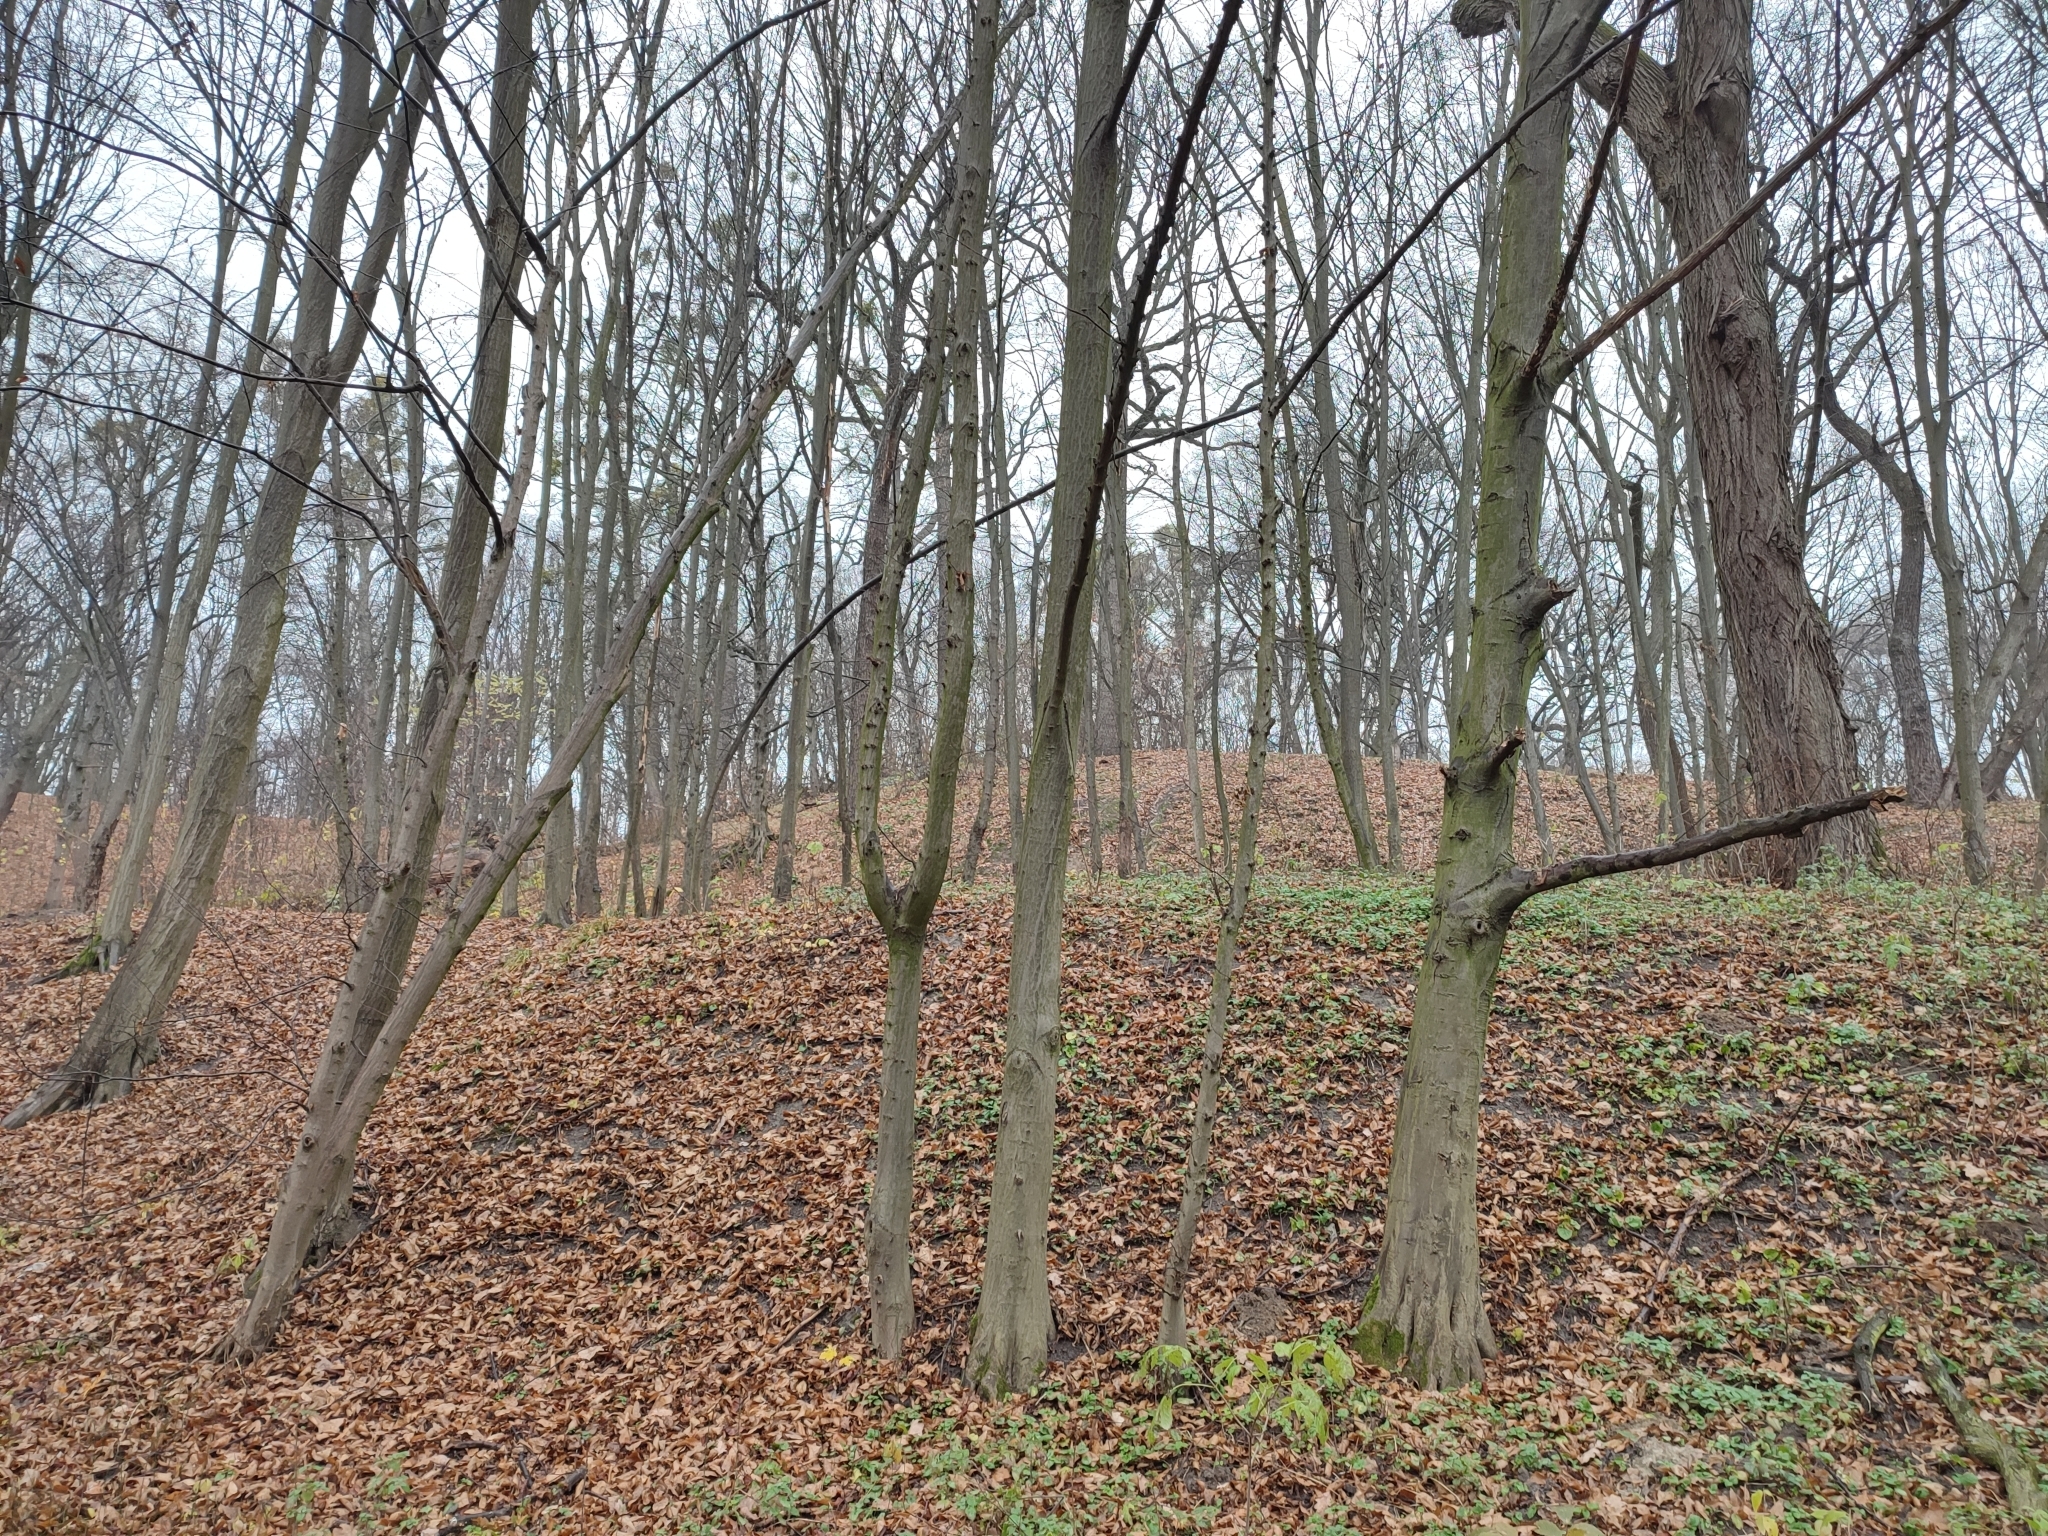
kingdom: Plantae
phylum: Tracheophyta
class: Magnoliopsida
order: Fagales
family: Betulaceae
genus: Carpinus
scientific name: Carpinus betulus
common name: Hornbeam
